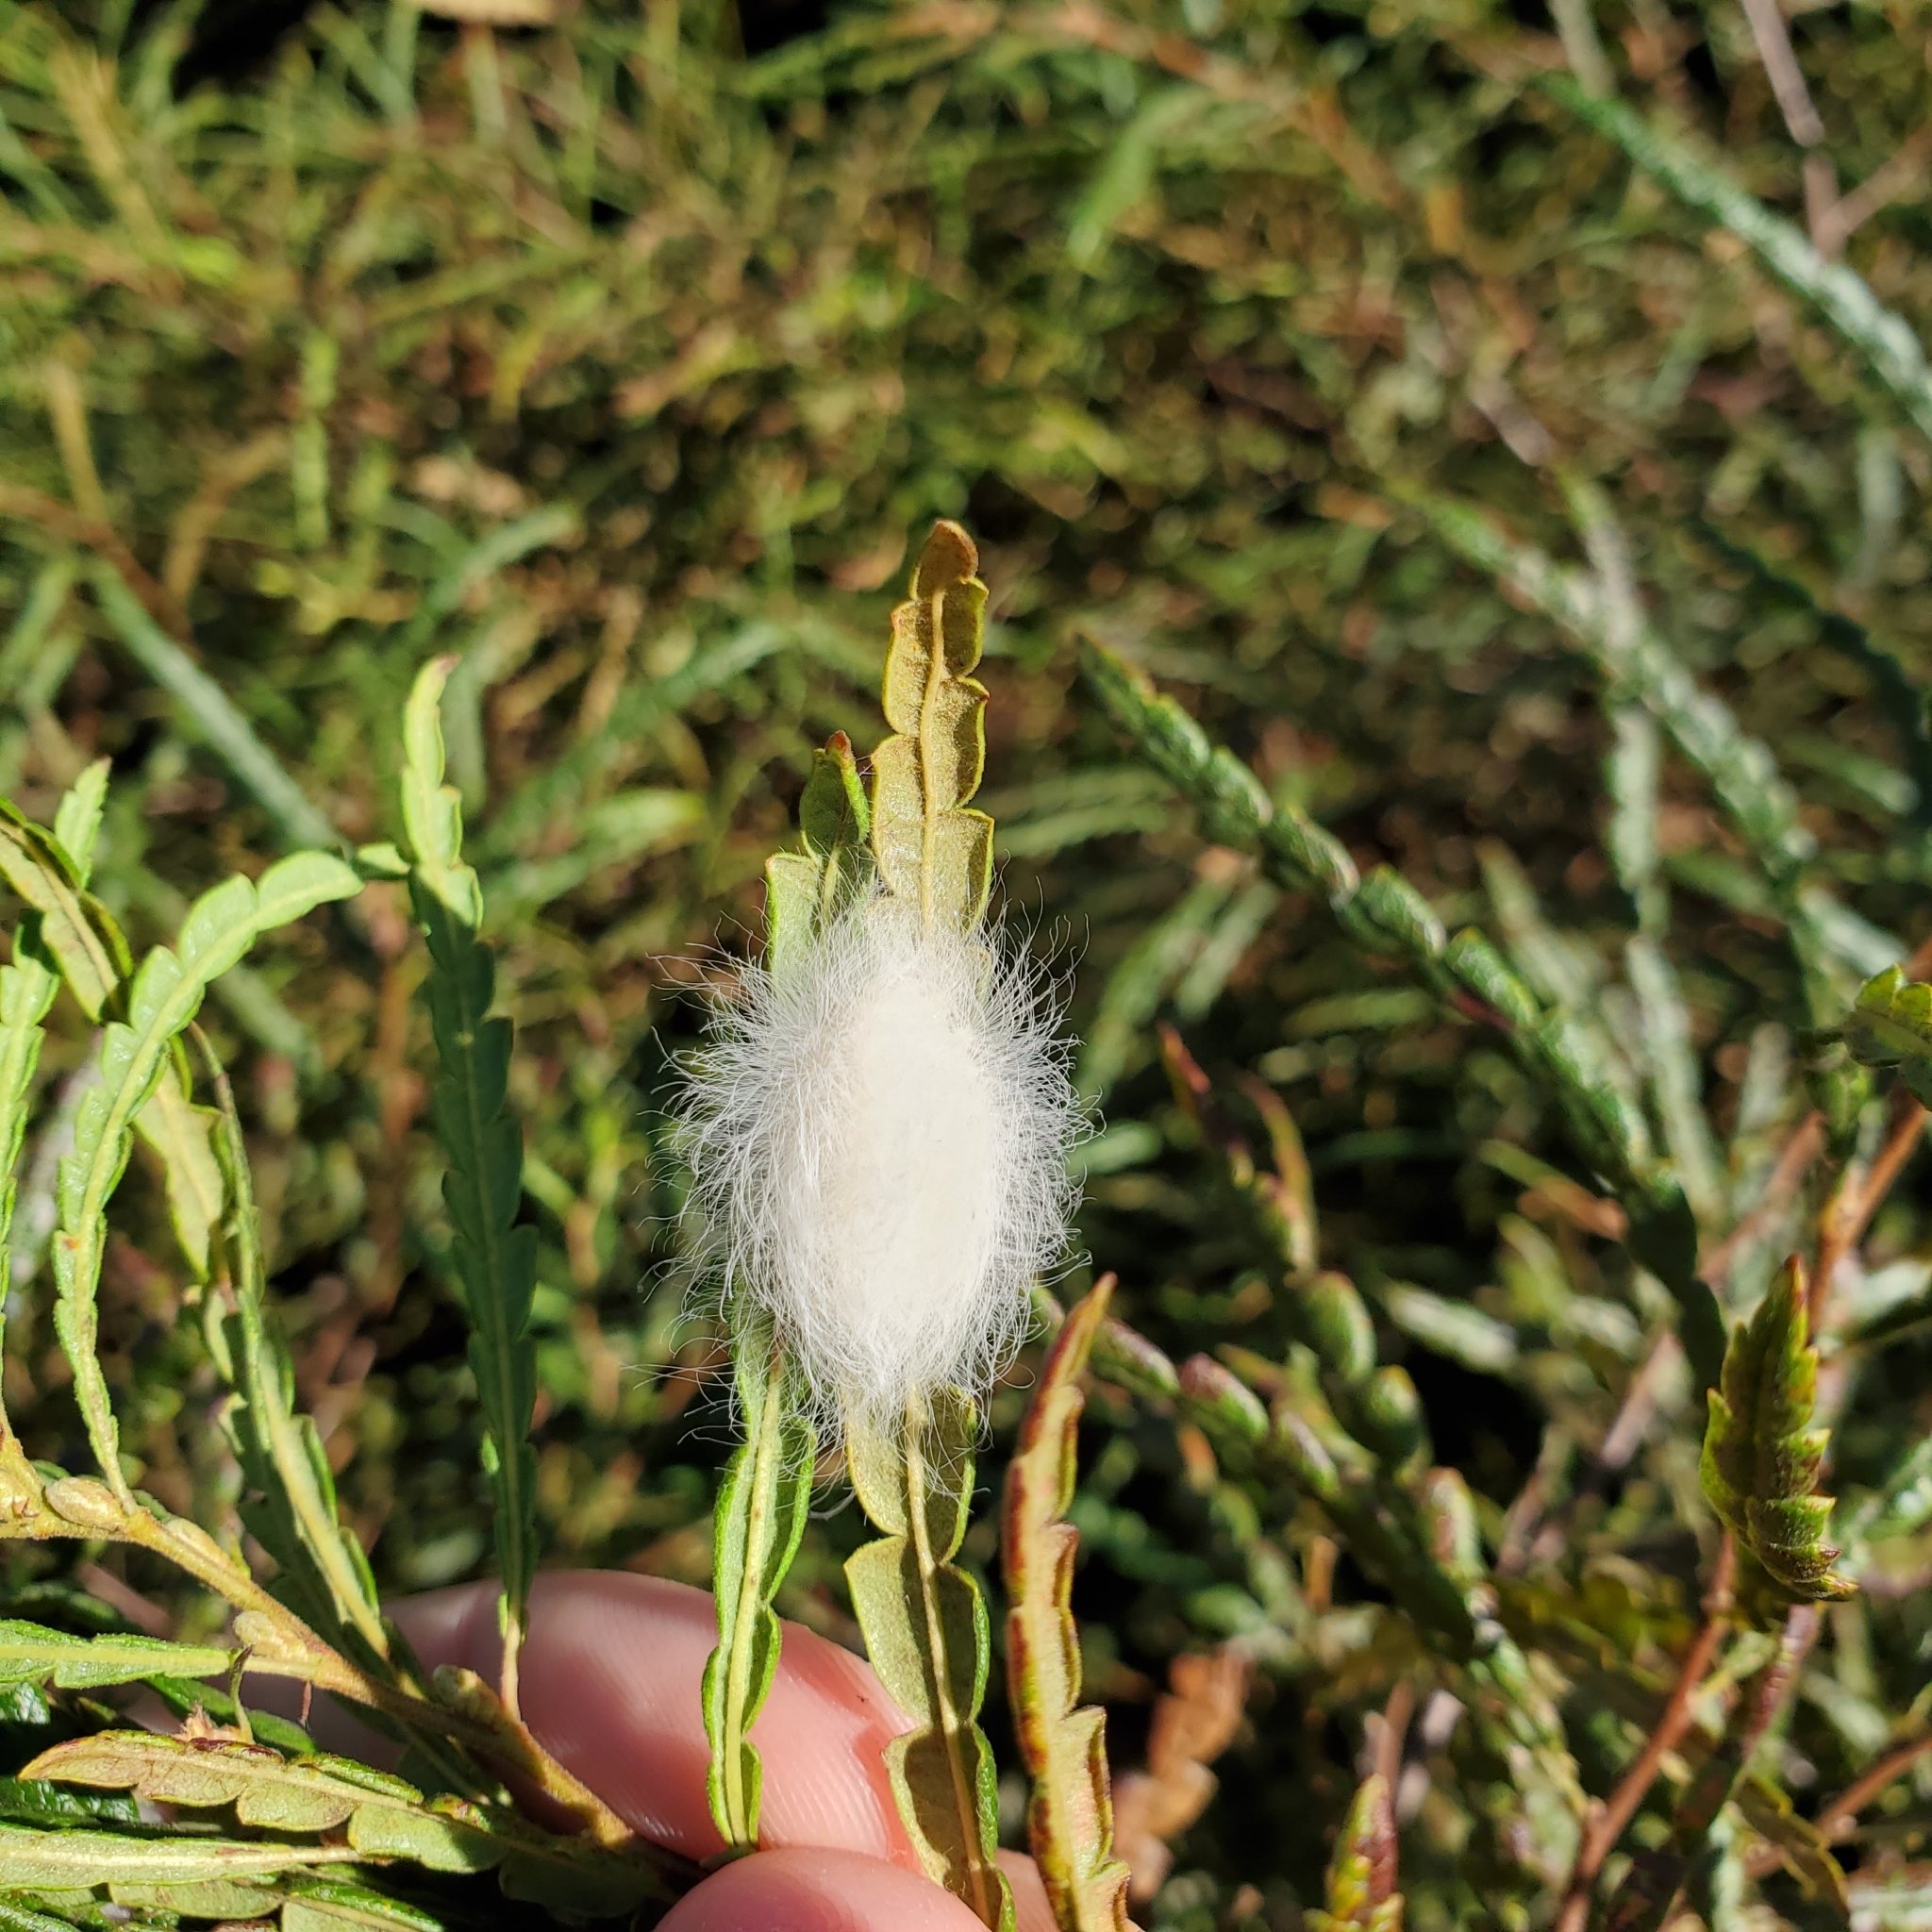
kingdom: Animalia
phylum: Arthropoda
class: Insecta
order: Lepidoptera
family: Megalopygidae
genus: Megalopyge
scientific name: Megalopyge crispata
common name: Black-waved flannel moth
